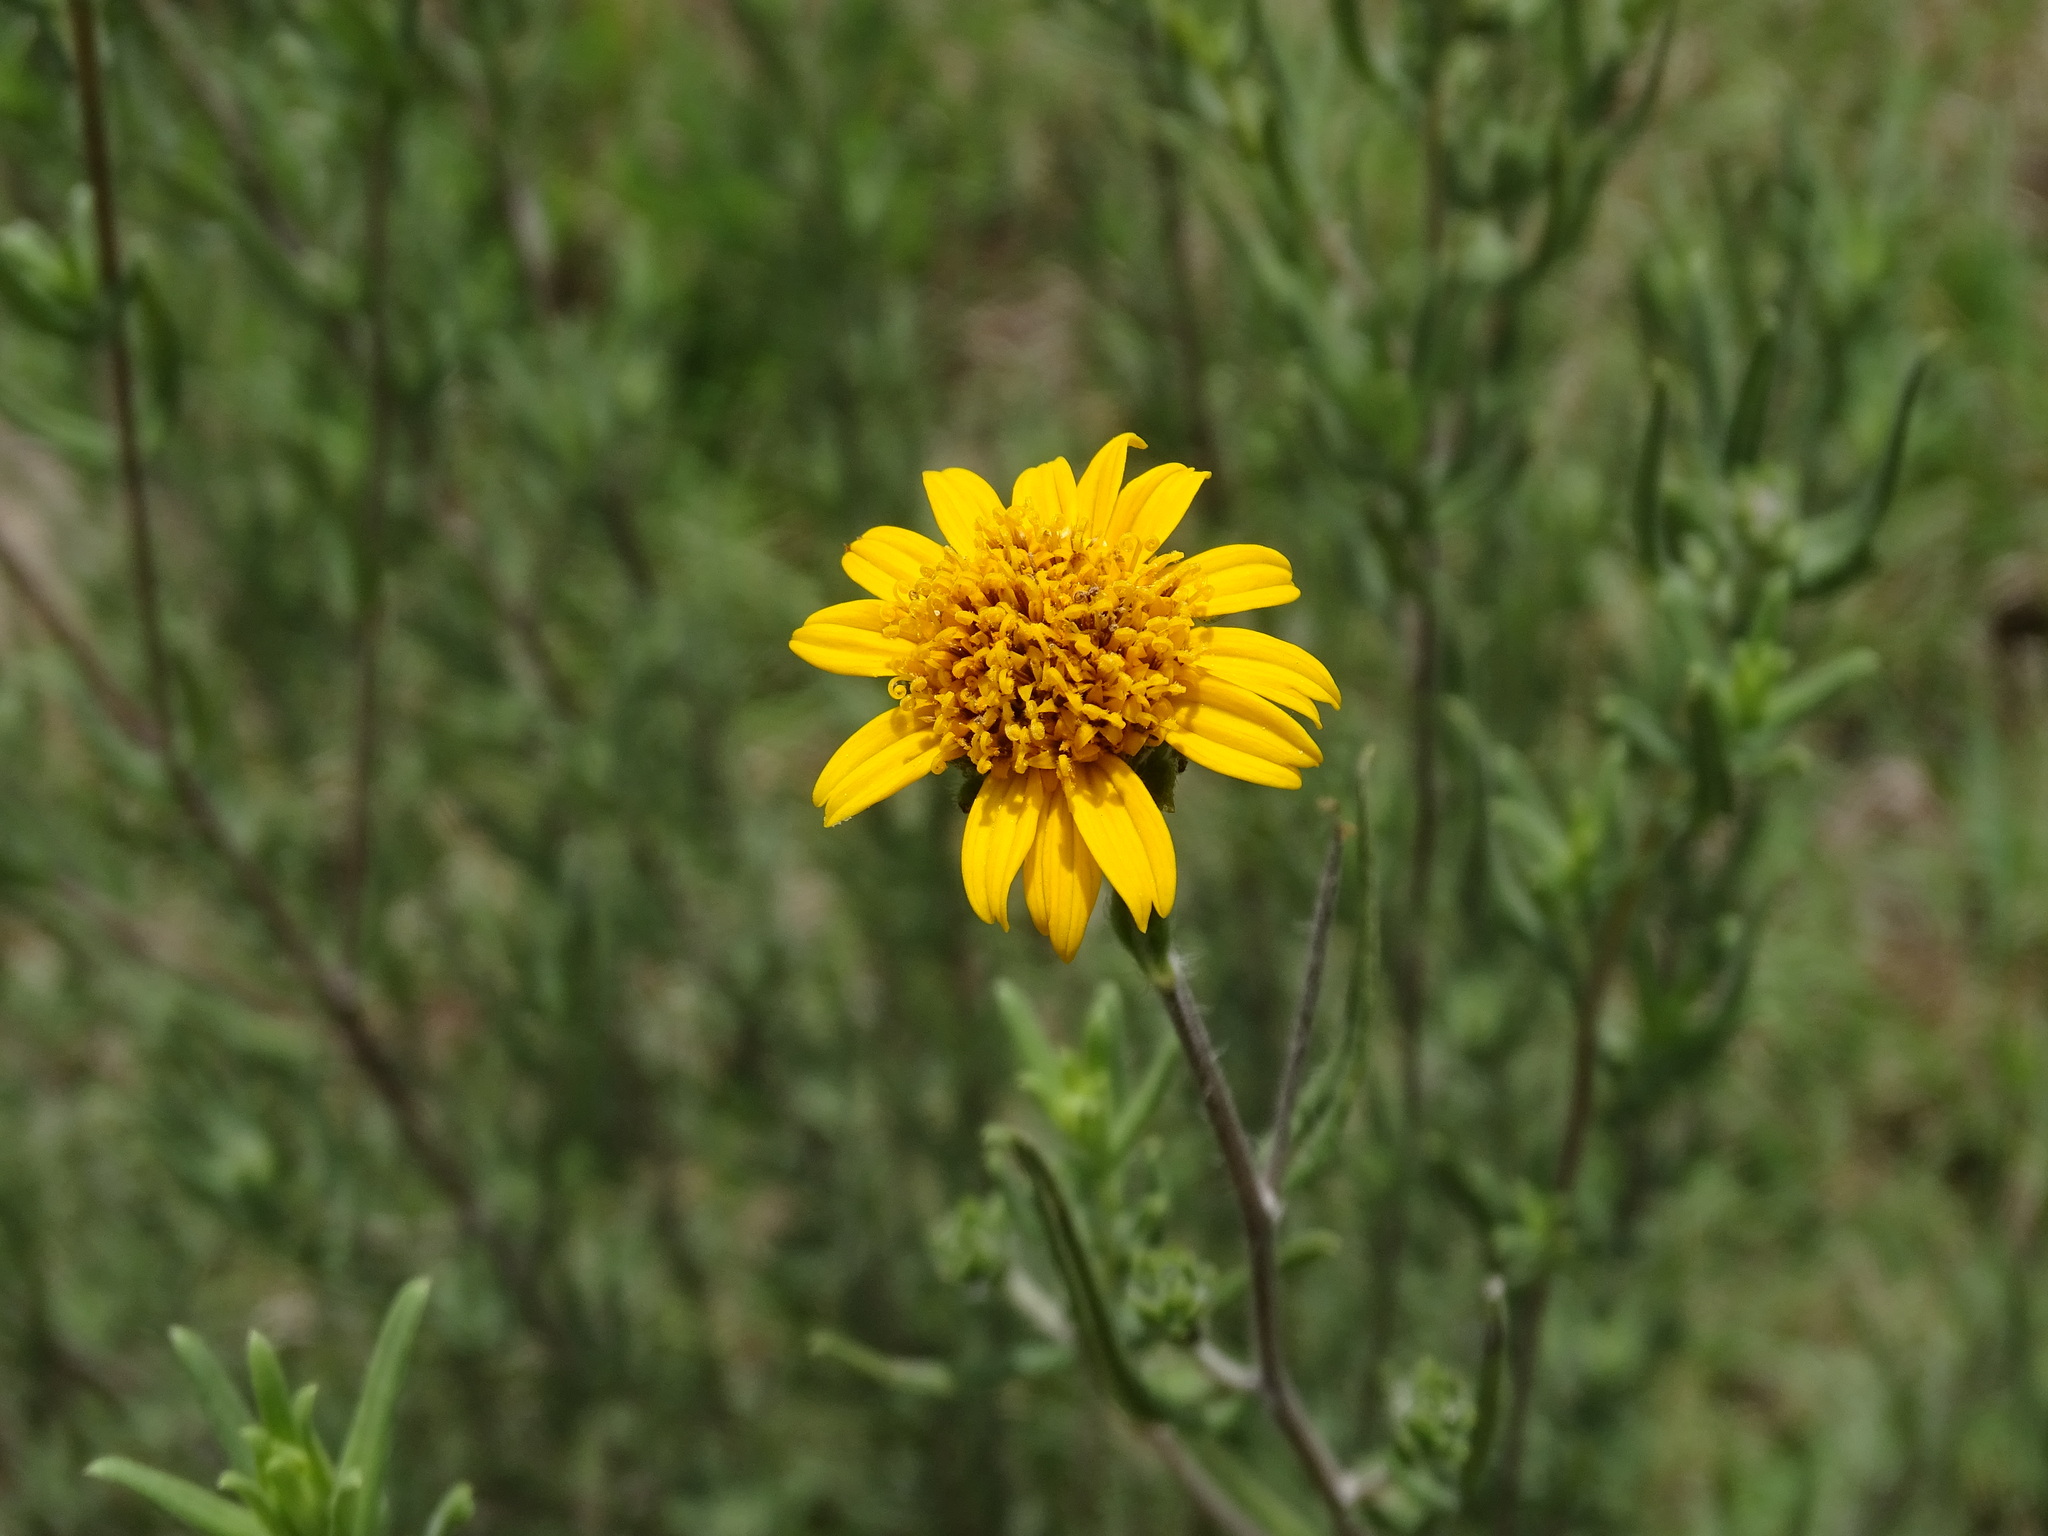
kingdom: Plantae
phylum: Tracheophyta
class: Magnoliopsida
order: Asterales
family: Asteraceae
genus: Aldama
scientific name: Aldama linearis
